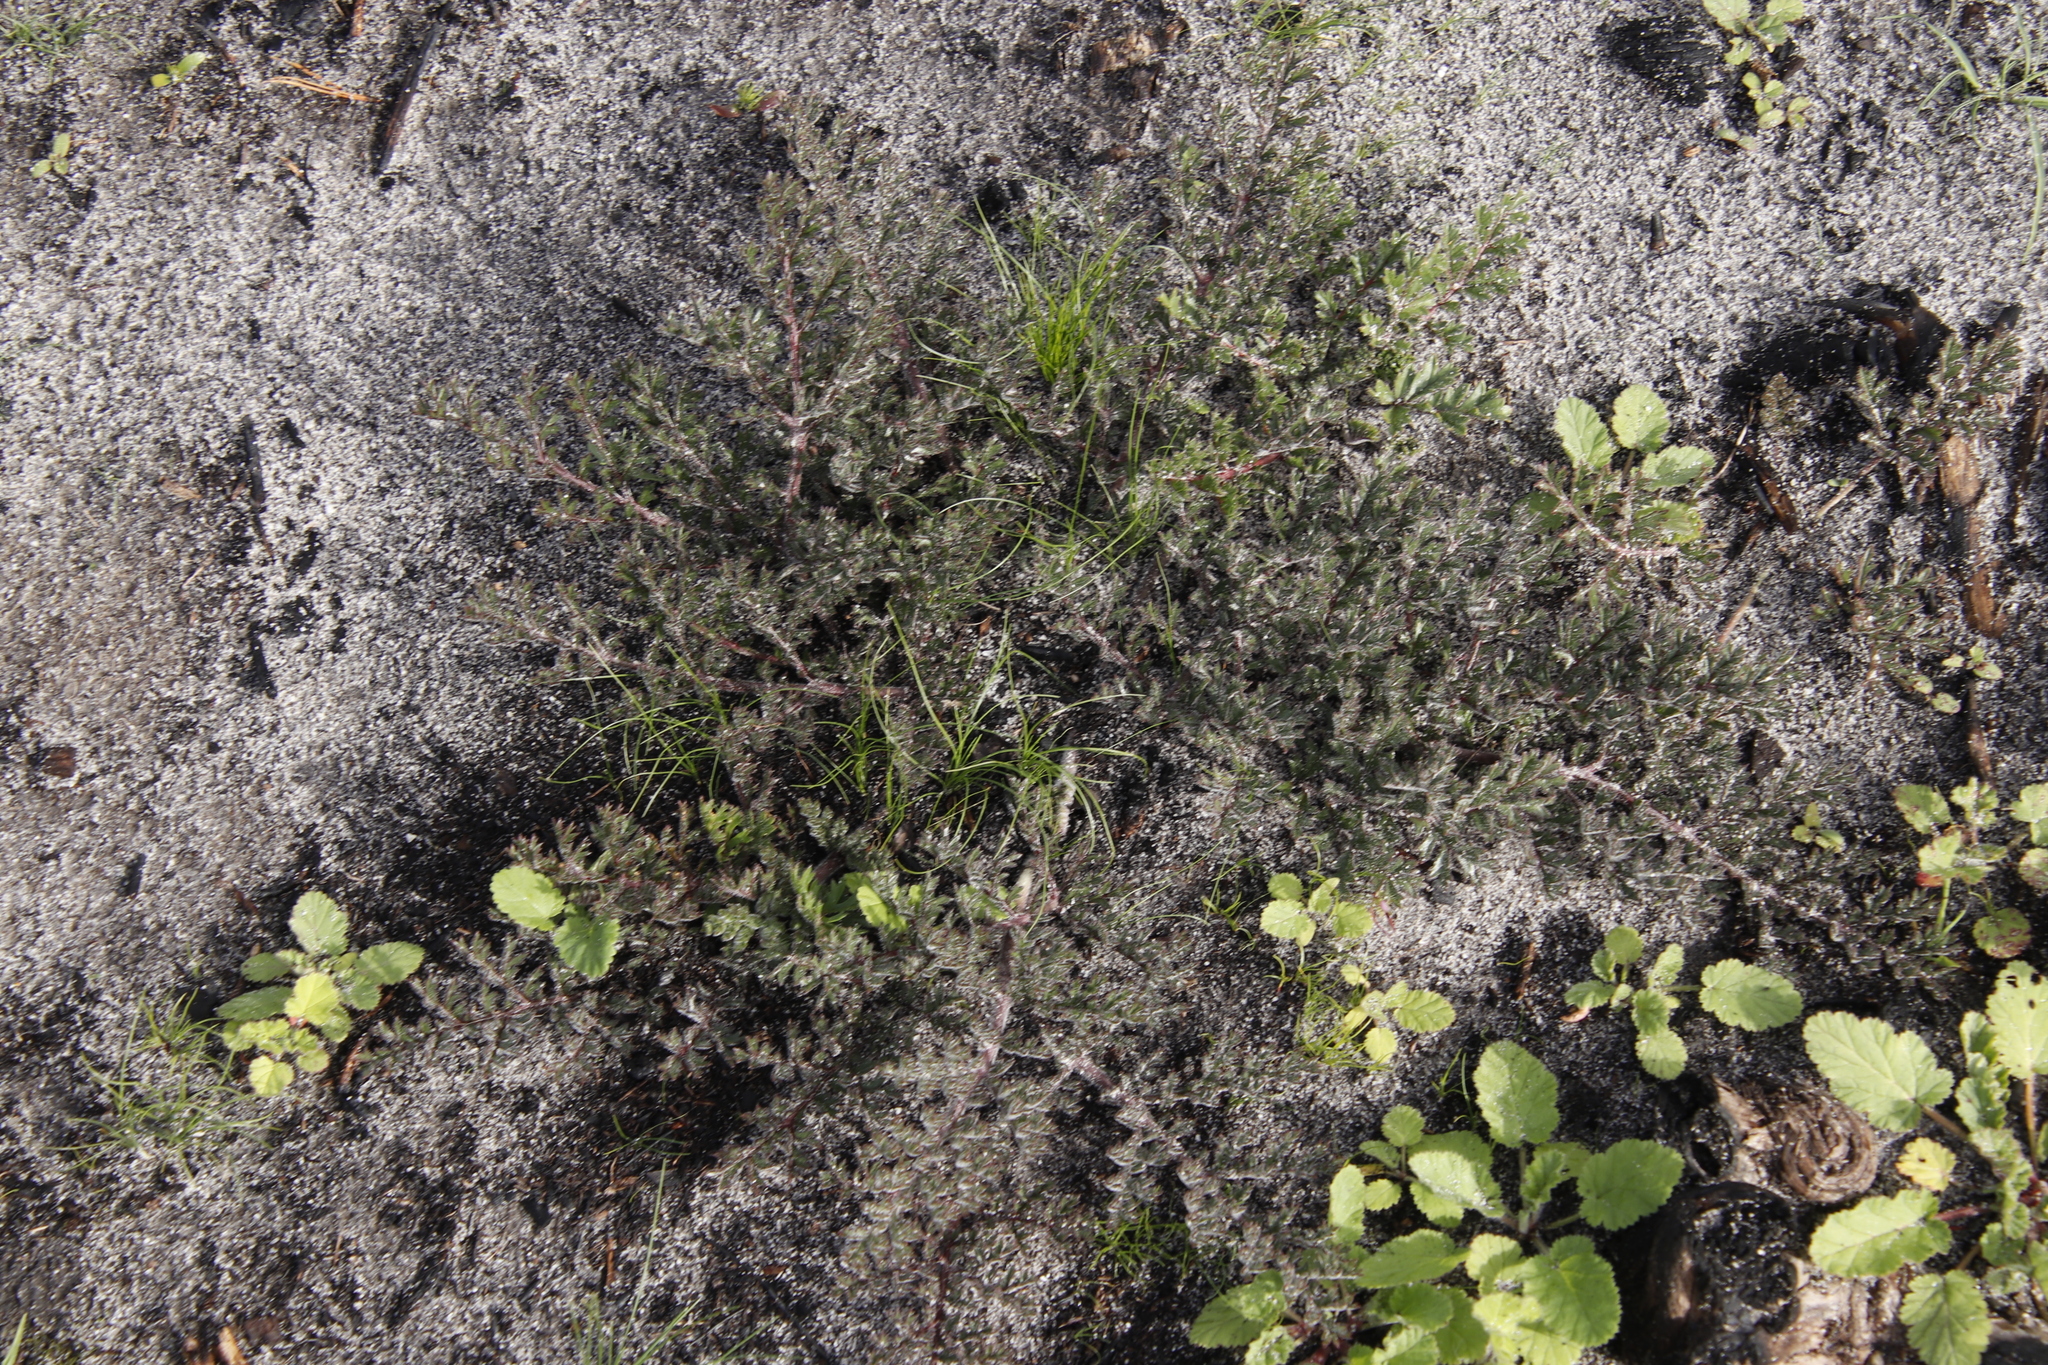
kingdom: Plantae
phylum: Tracheophyta
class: Magnoliopsida
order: Geraniales
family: Geraniaceae
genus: Pelargonium
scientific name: Pelargonium triste
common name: Night-scent pelargonium
